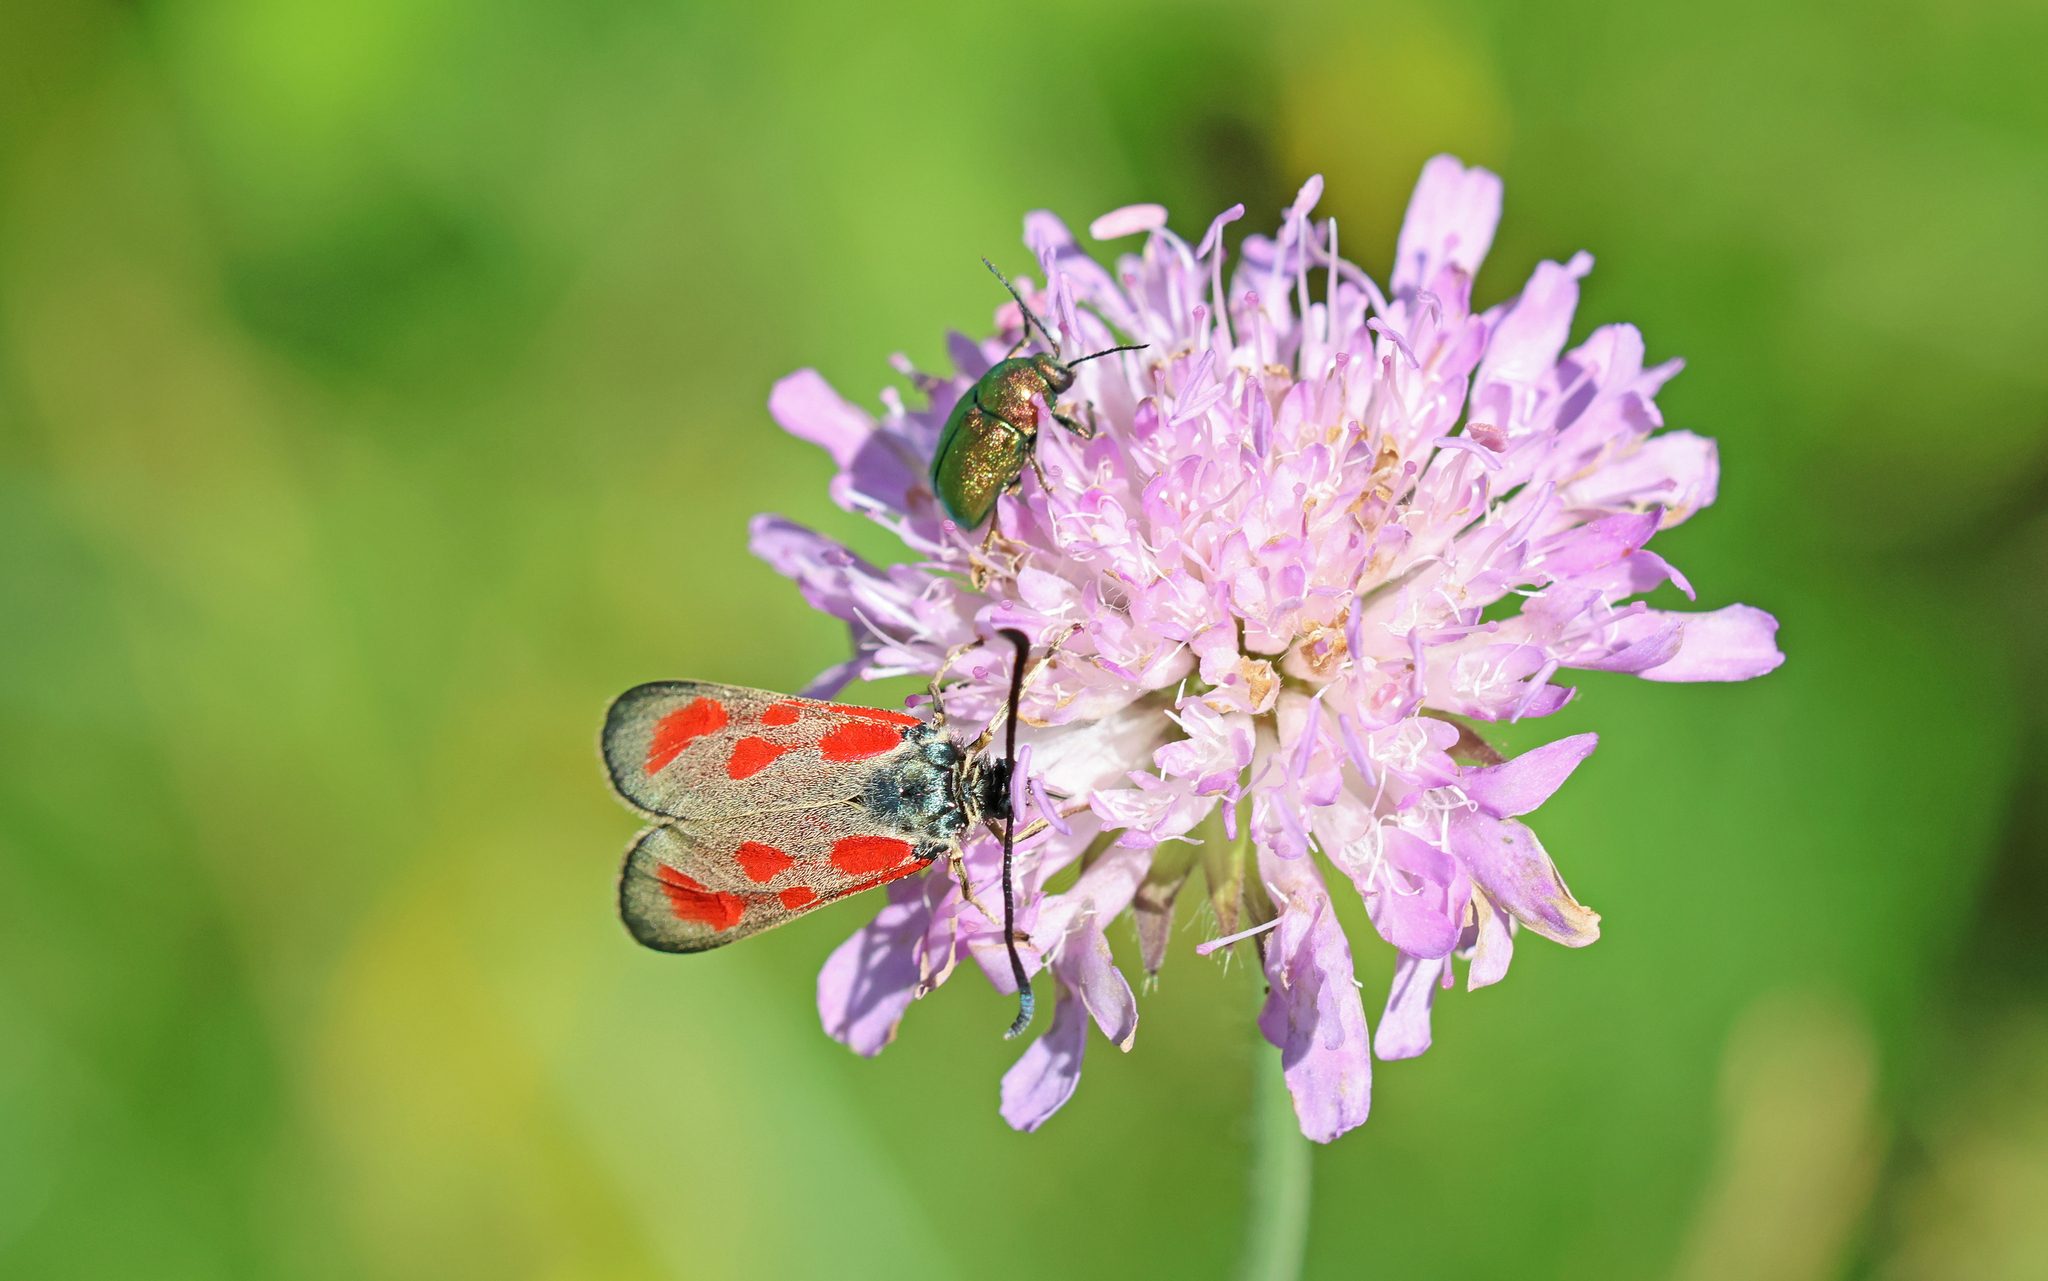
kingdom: Animalia
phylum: Arthropoda
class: Insecta
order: Lepidoptera
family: Zygaenidae
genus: Zygaena
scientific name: Zygaena loti
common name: Slender scotch burnet
